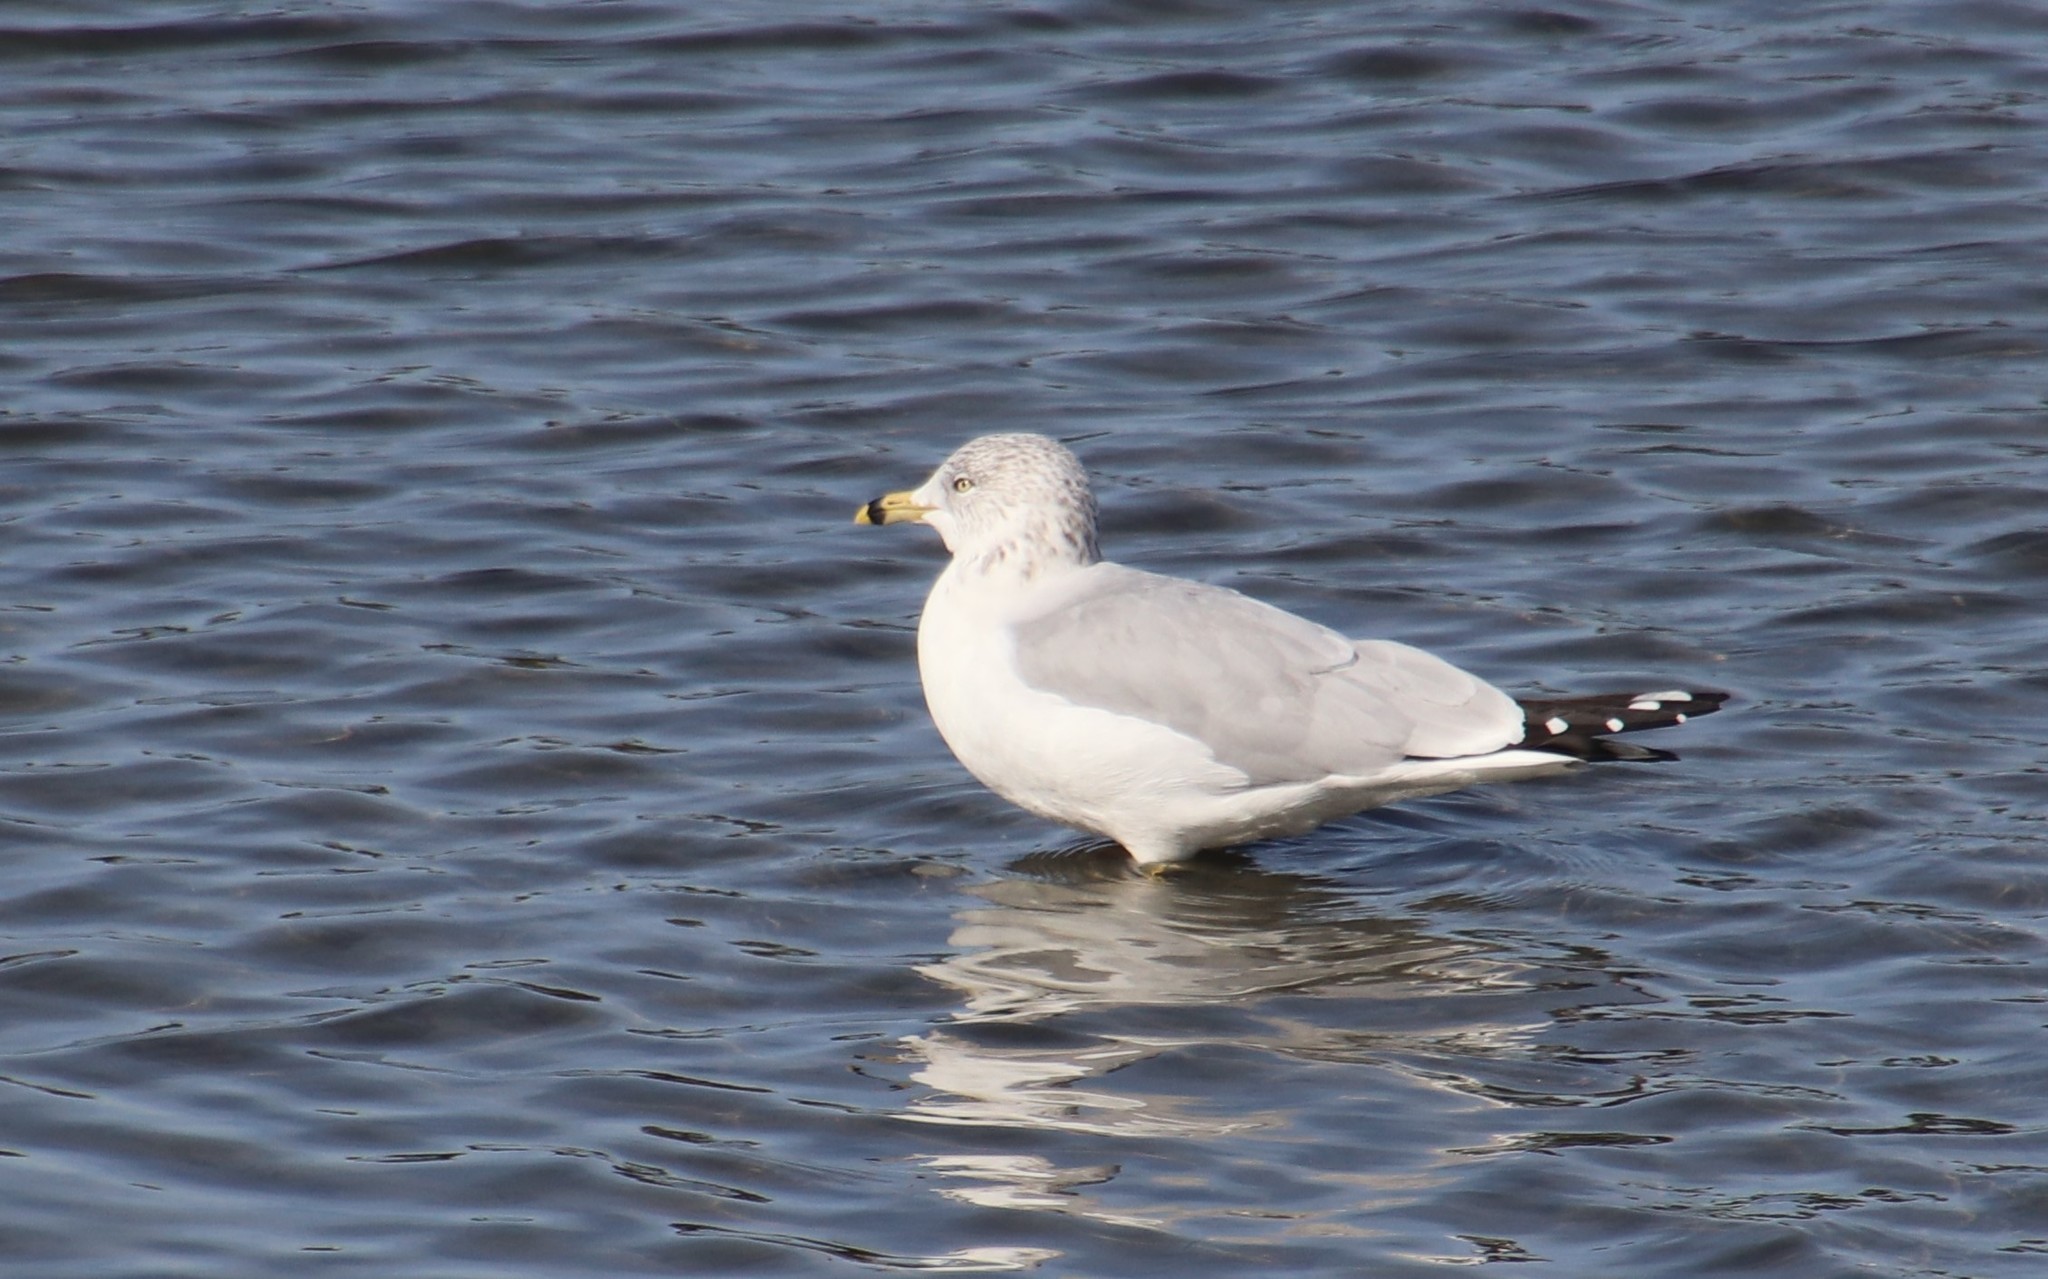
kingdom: Animalia
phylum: Chordata
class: Aves
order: Charadriiformes
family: Laridae
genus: Larus
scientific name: Larus delawarensis
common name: Ring-billed gull
